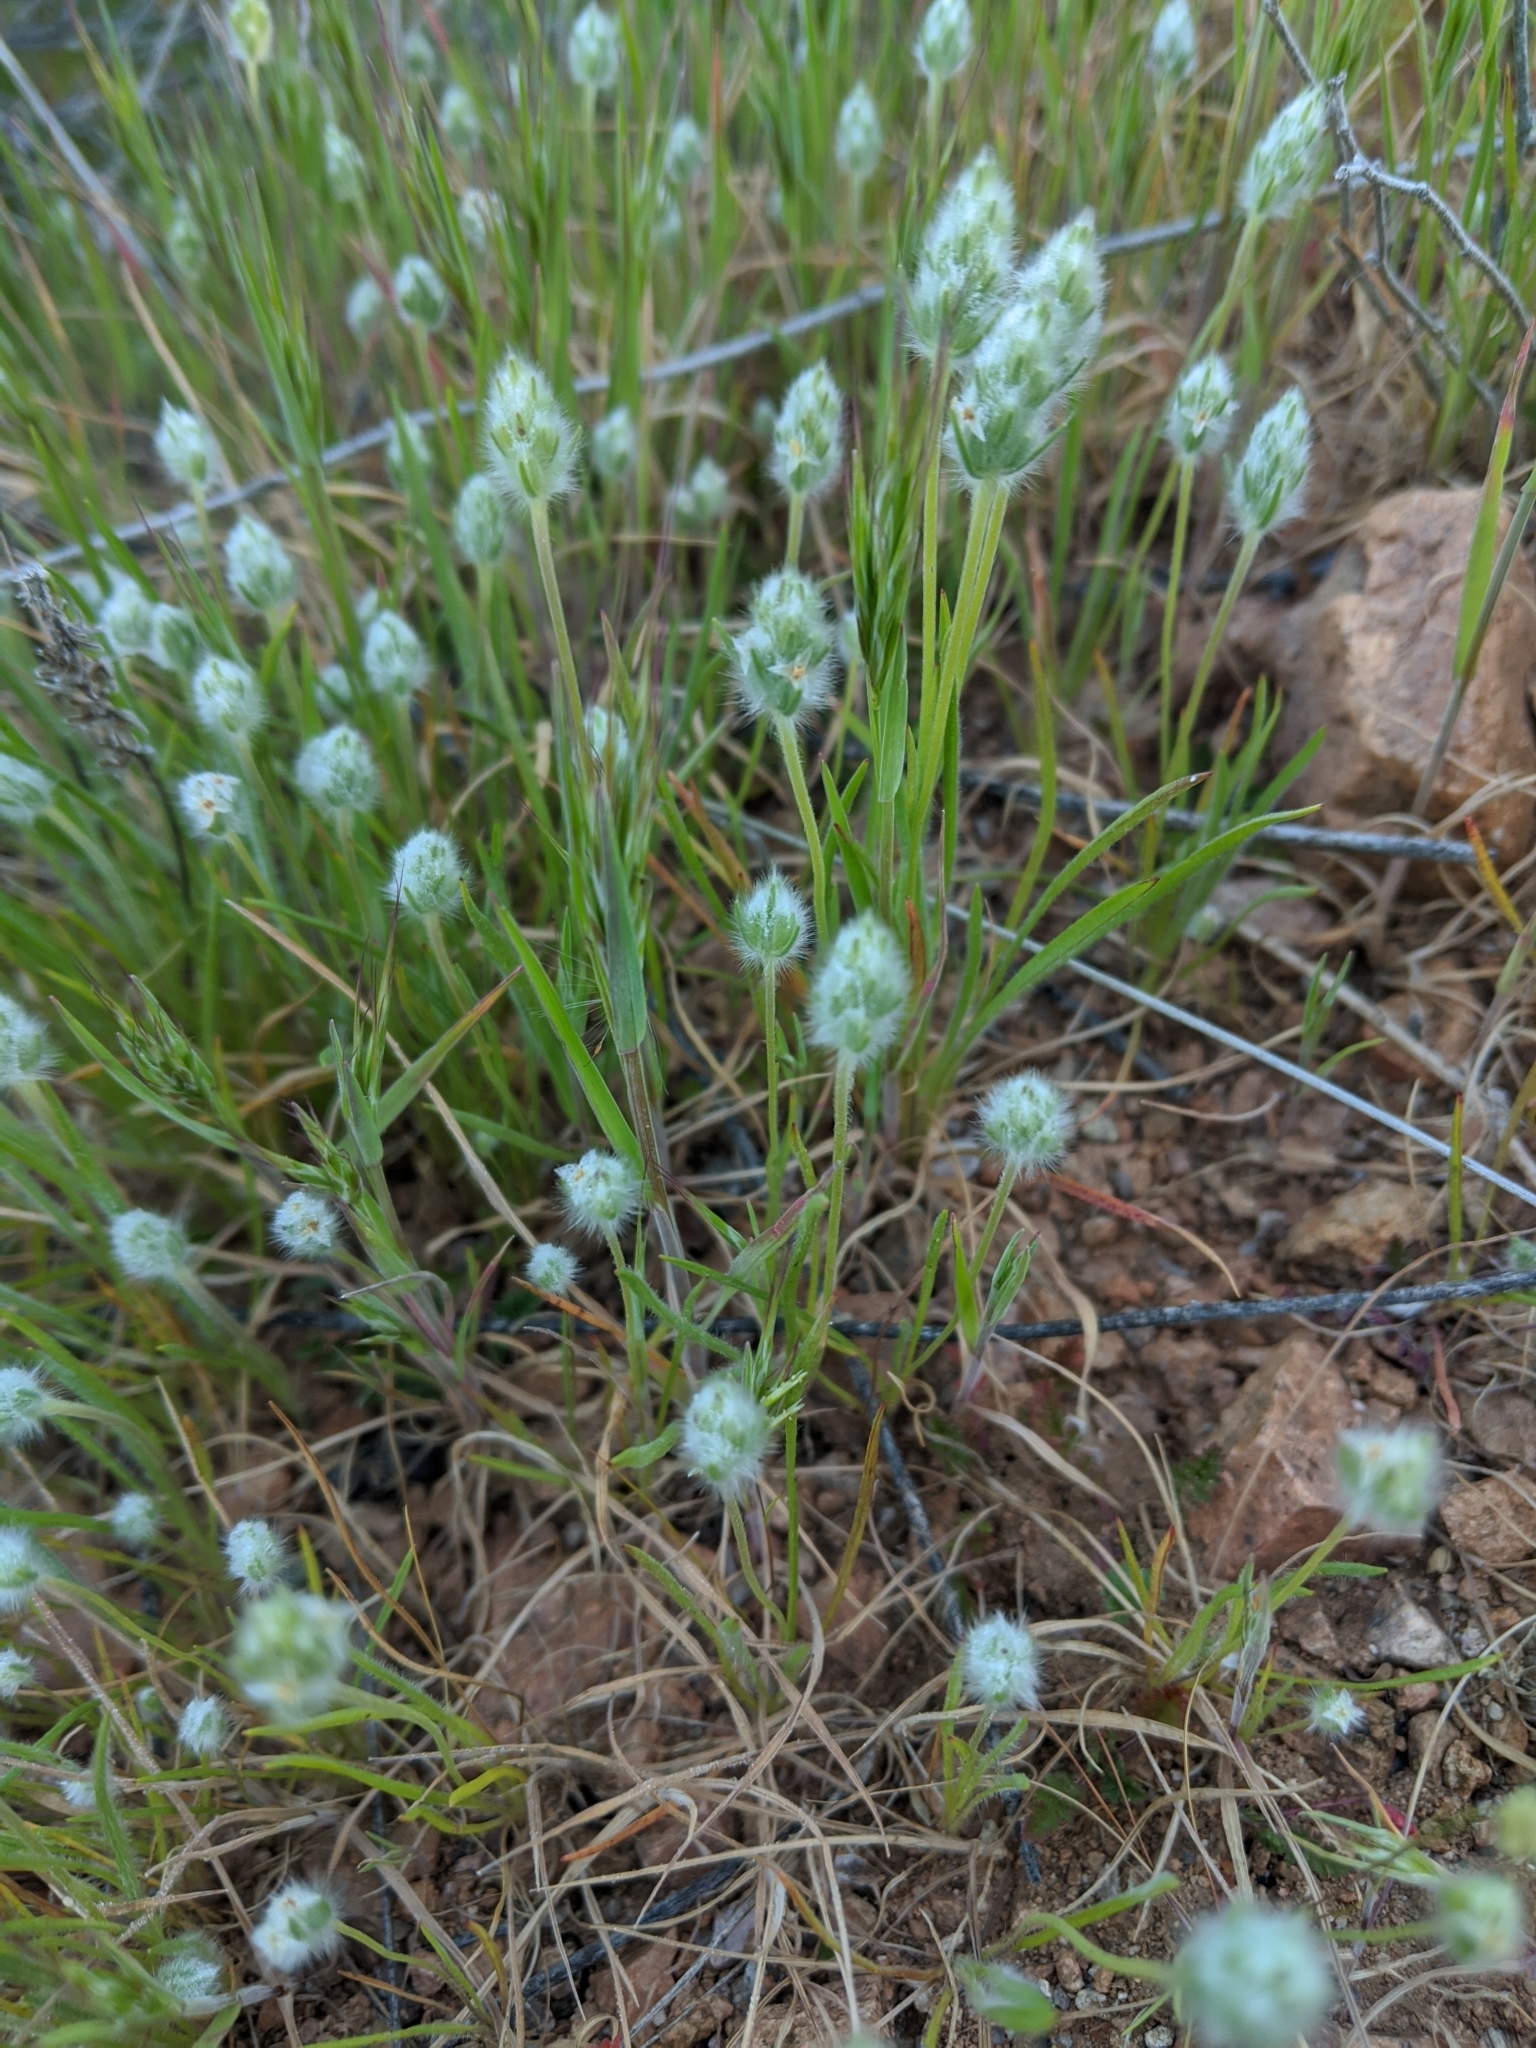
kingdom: Plantae
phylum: Tracheophyta
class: Magnoliopsida
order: Lamiales
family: Plantaginaceae
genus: Plantago
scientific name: Plantago patagonica
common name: Patagonia indian-wheat
